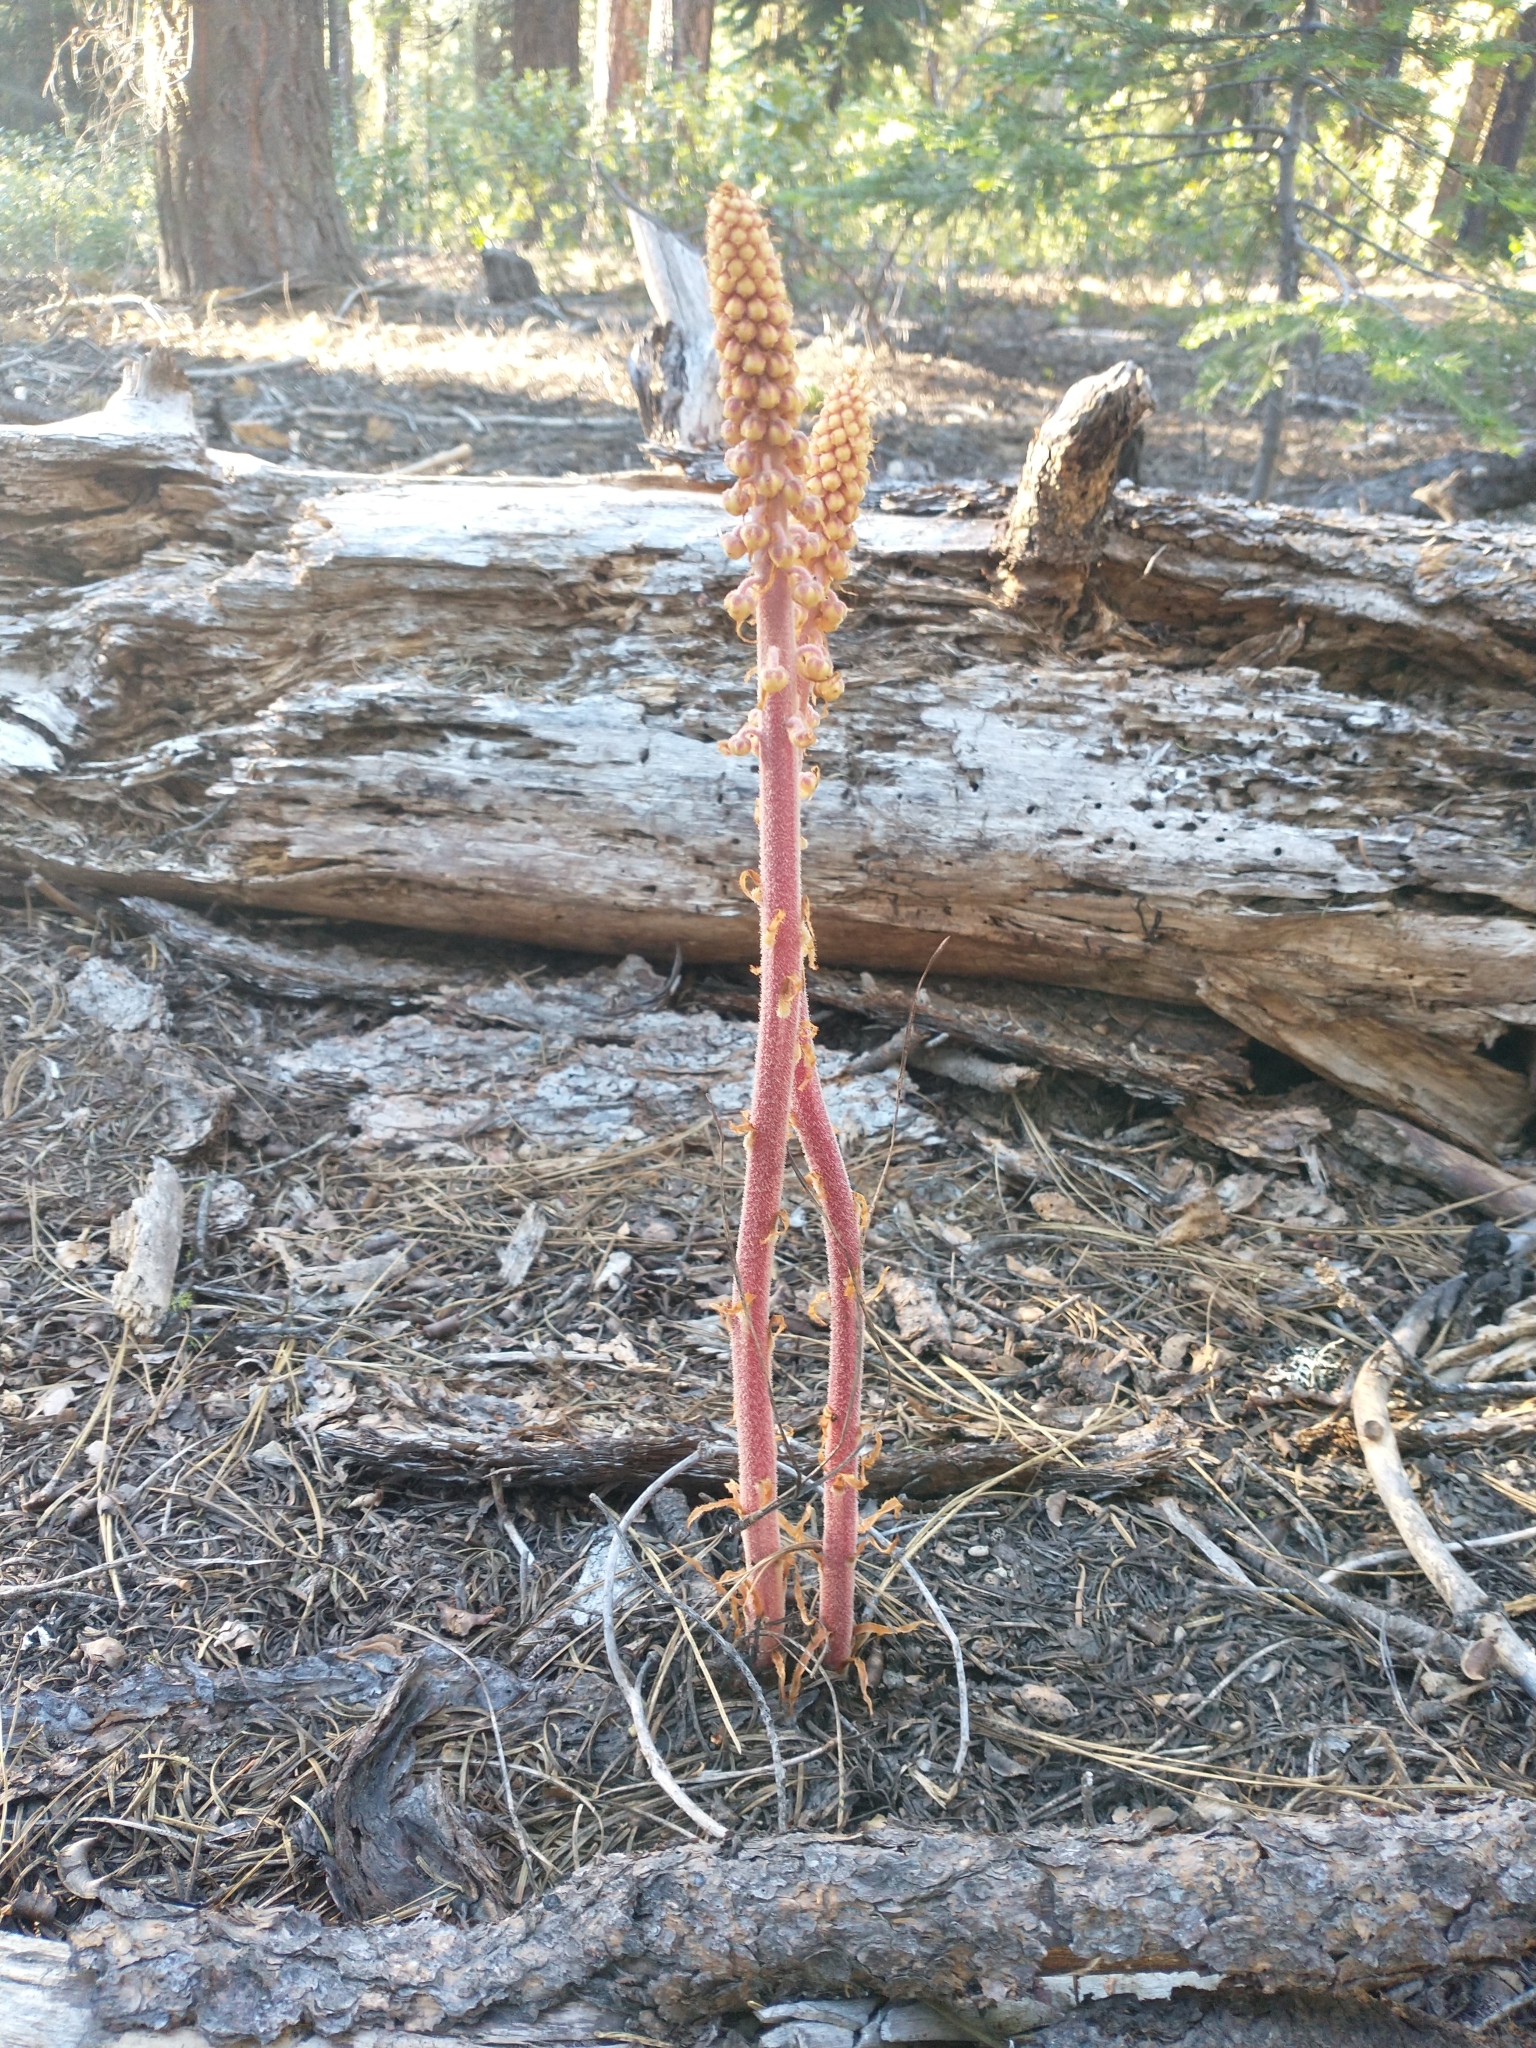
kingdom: Plantae
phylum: Tracheophyta
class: Magnoliopsida
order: Ericales
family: Ericaceae
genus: Pterospora
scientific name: Pterospora andromedea
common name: Giant bird's-nest
